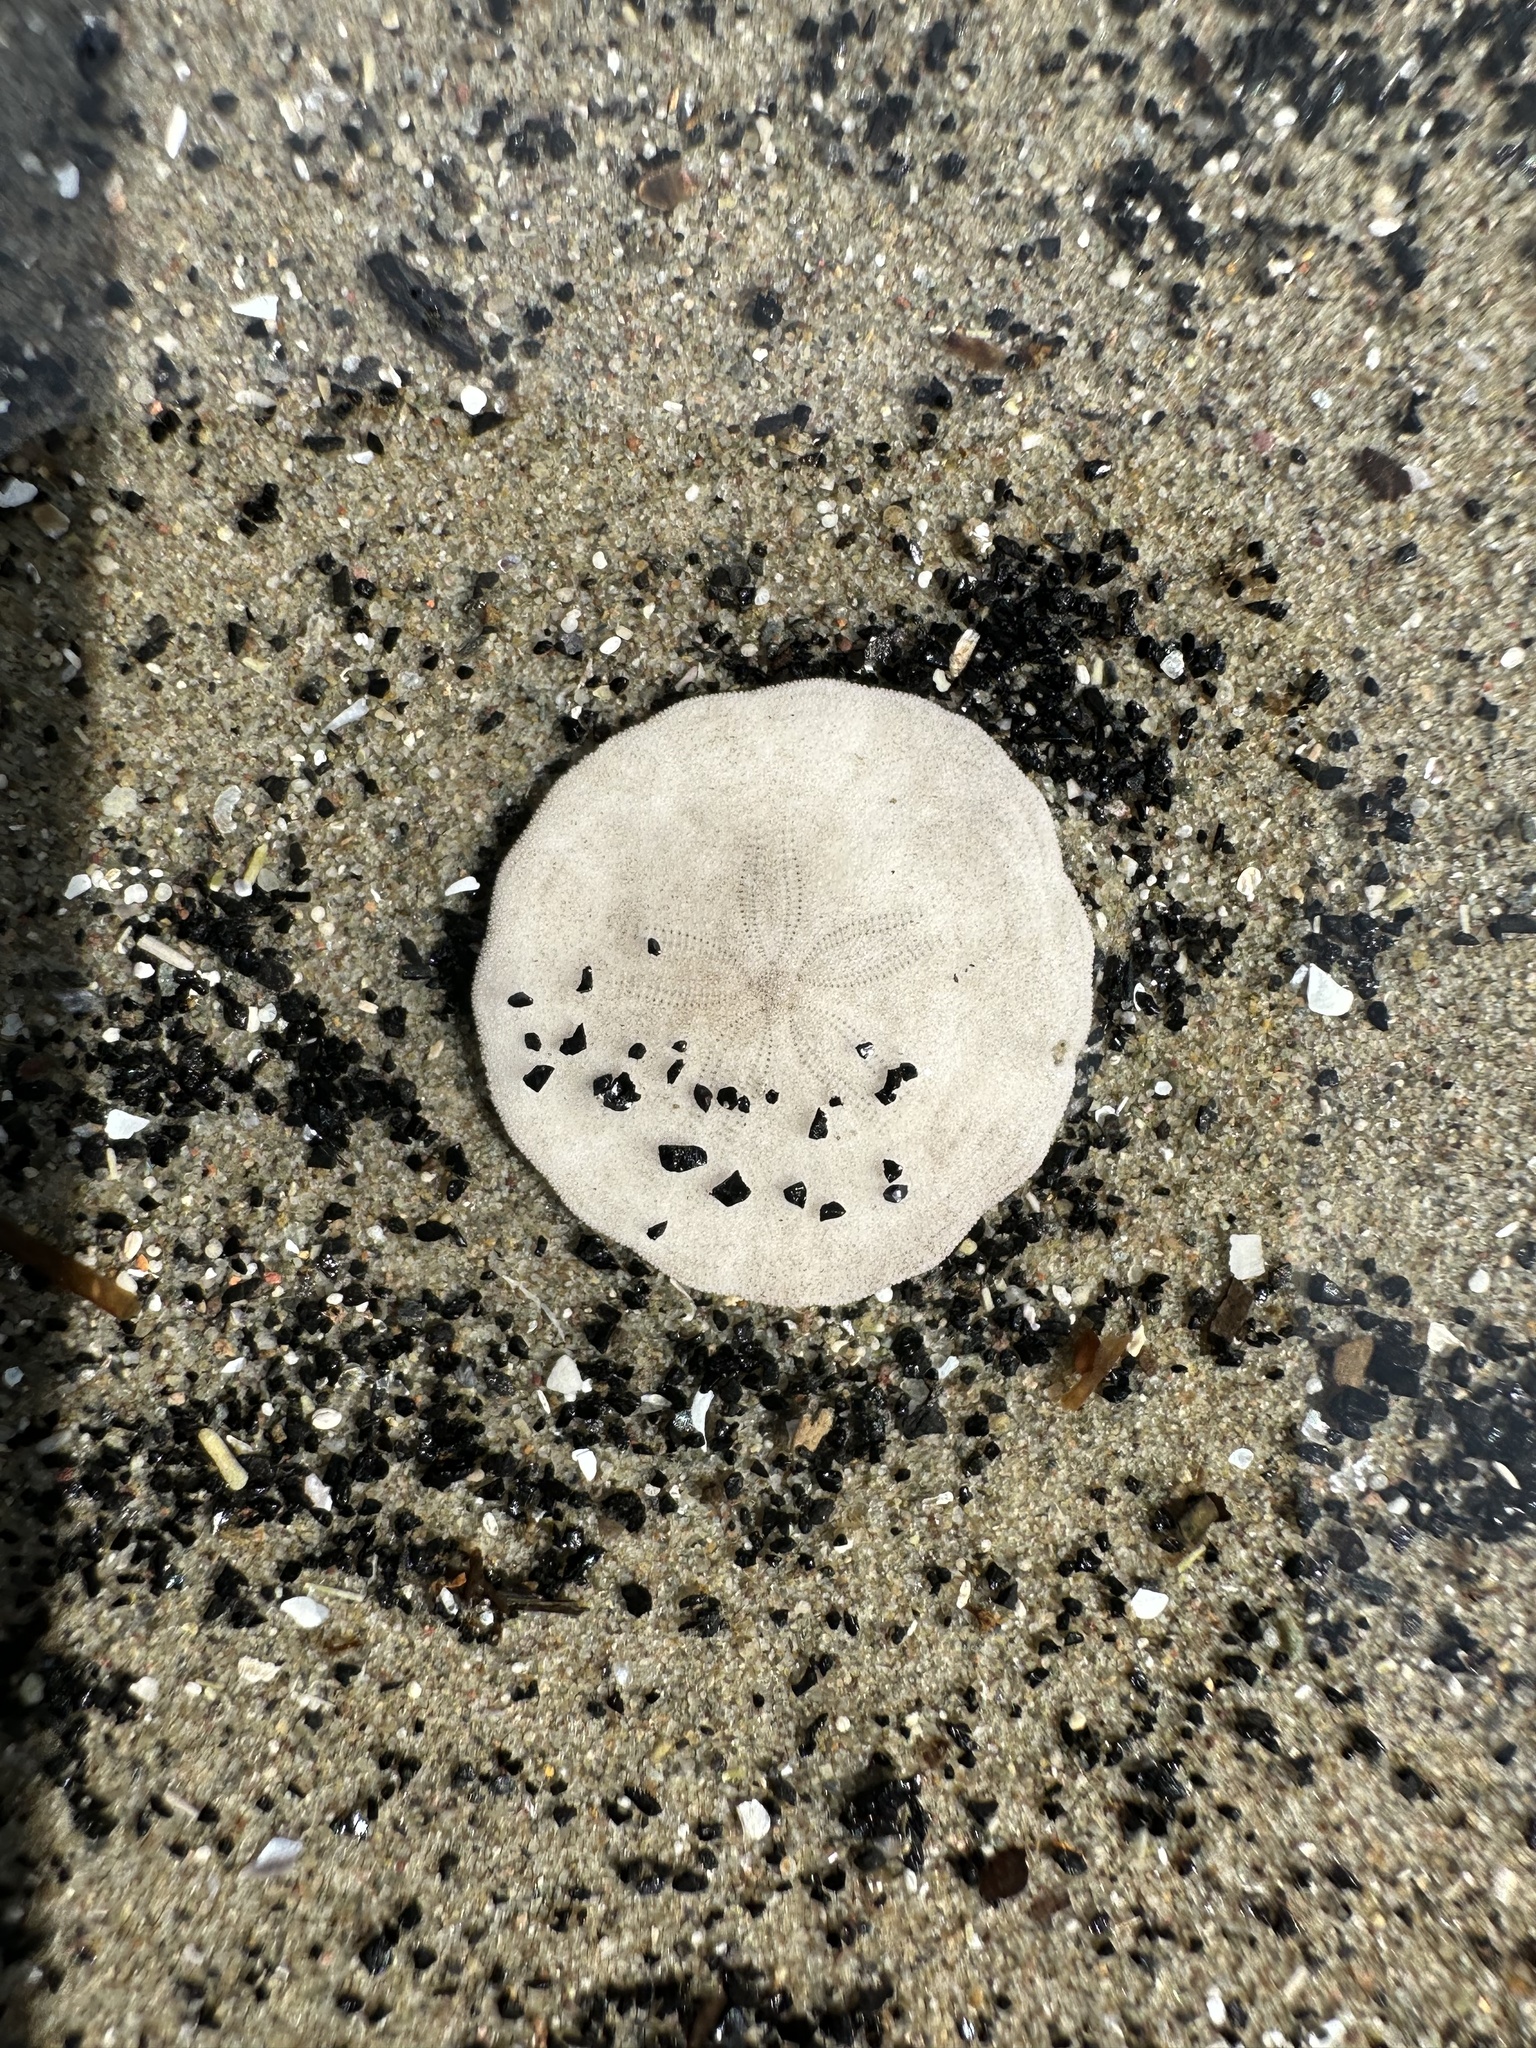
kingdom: Animalia
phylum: Echinodermata
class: Echinoidea
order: Echinolampadacea
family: Echinarachniidae
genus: Echinarachnius
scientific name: Echinarachnius parma
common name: Common sand dollar
